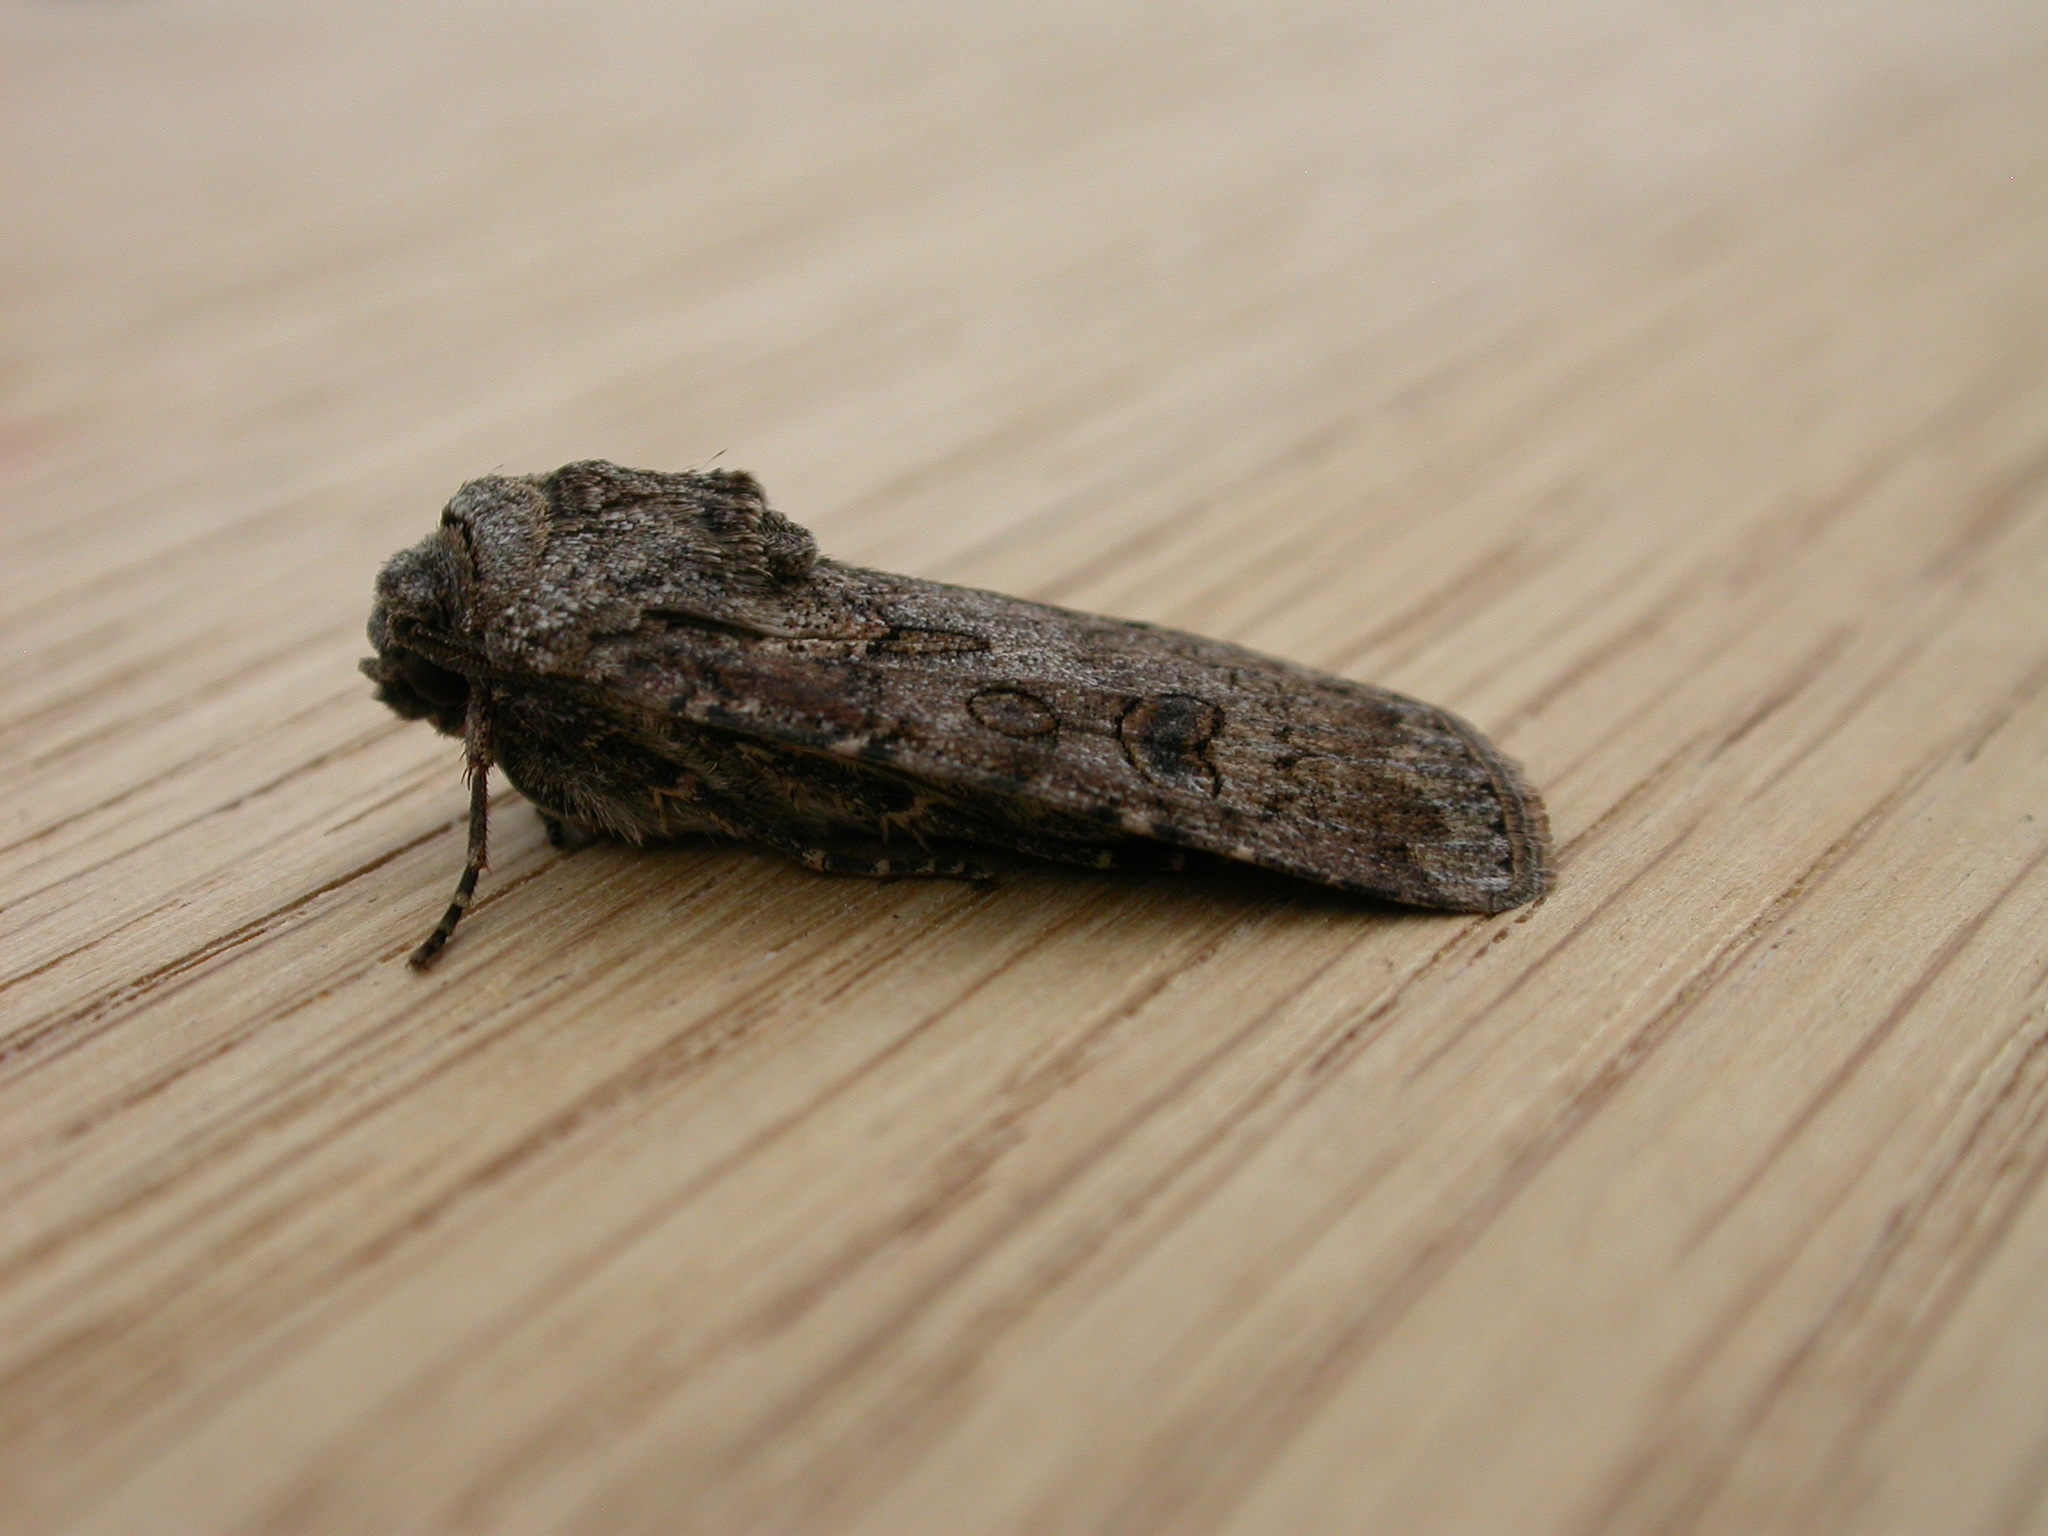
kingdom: Animalia
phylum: Arthropoda
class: Insecta
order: Lepidoptera
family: Noctuidae
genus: Agrotis
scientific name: Agrotis segetum
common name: Turnip moth
